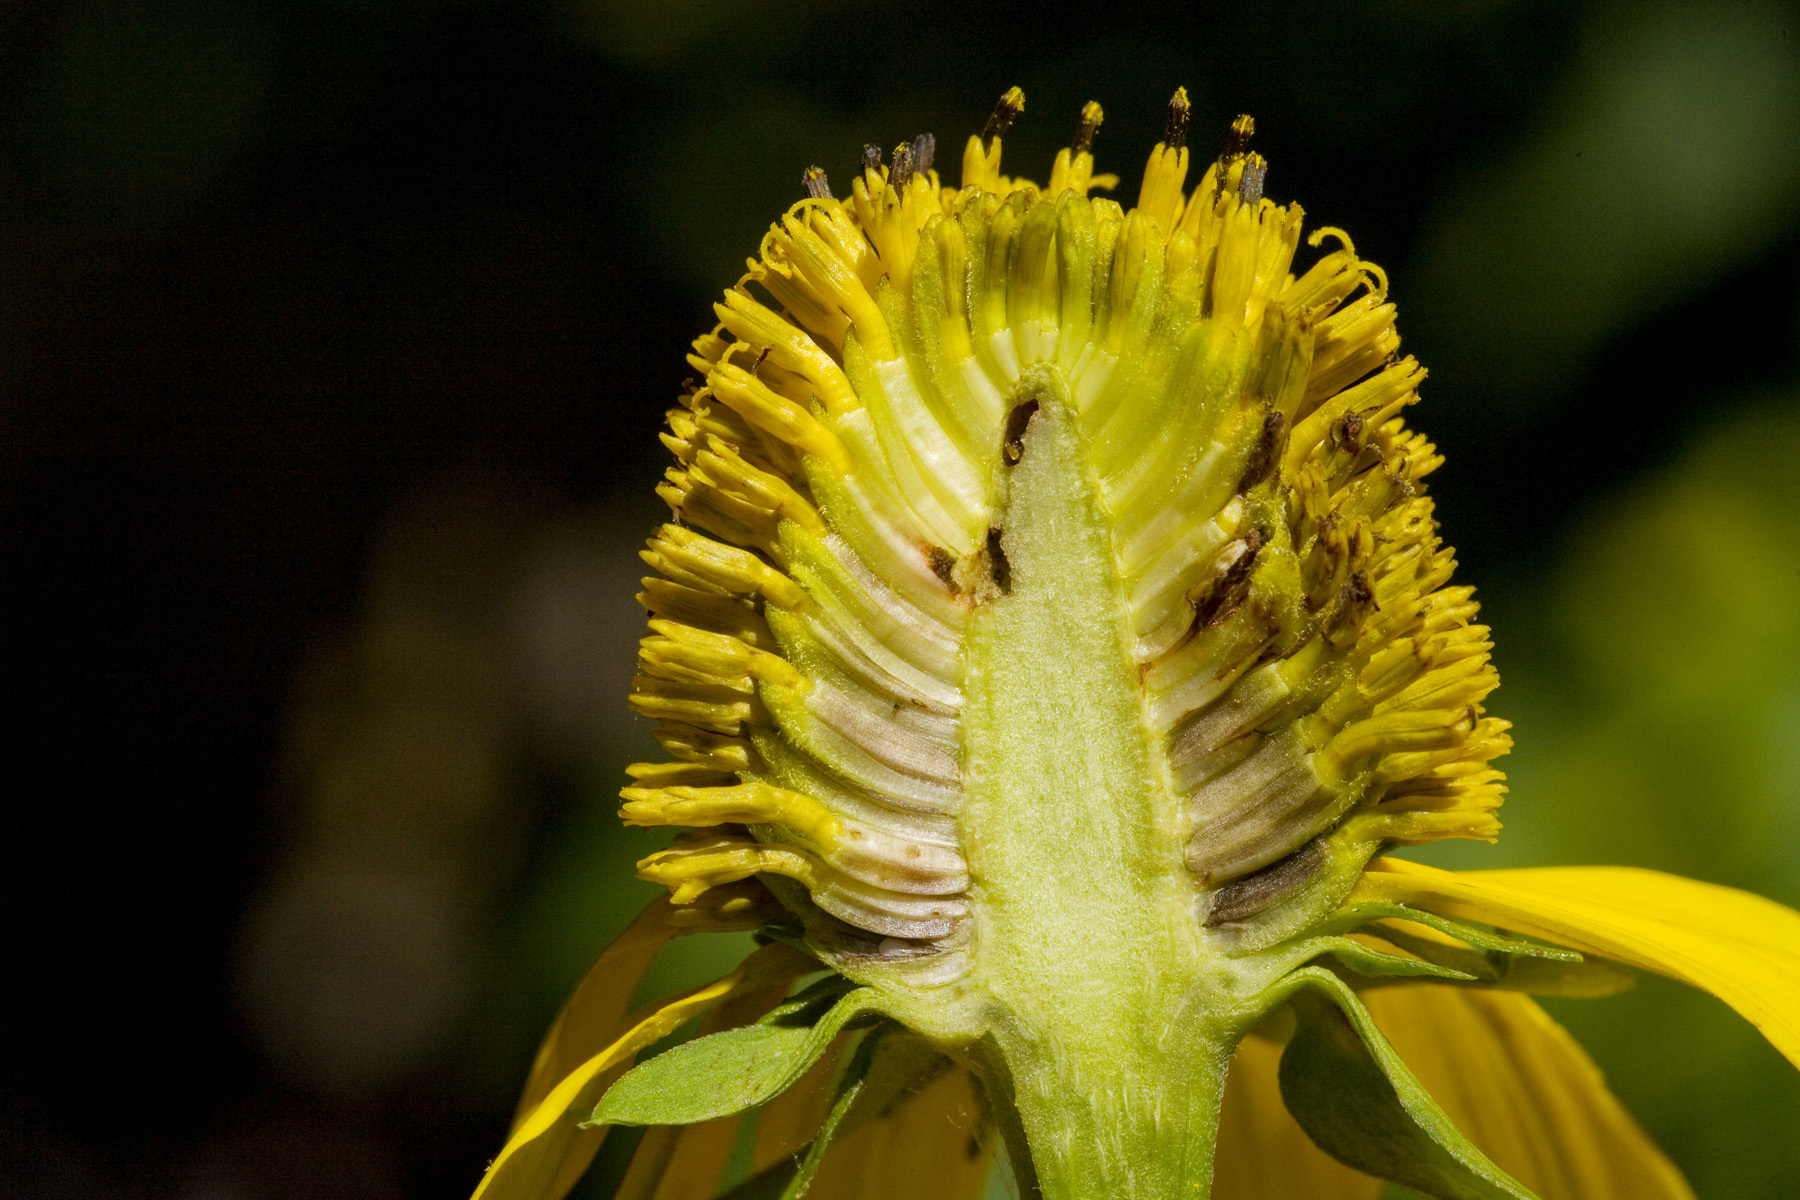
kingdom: Plantae
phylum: Tracheophyta
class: Magnoliopsida
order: Asterales
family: Asteraceae
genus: Rudbeckia
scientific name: Rudbeckia laciniata
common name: Coneflower
